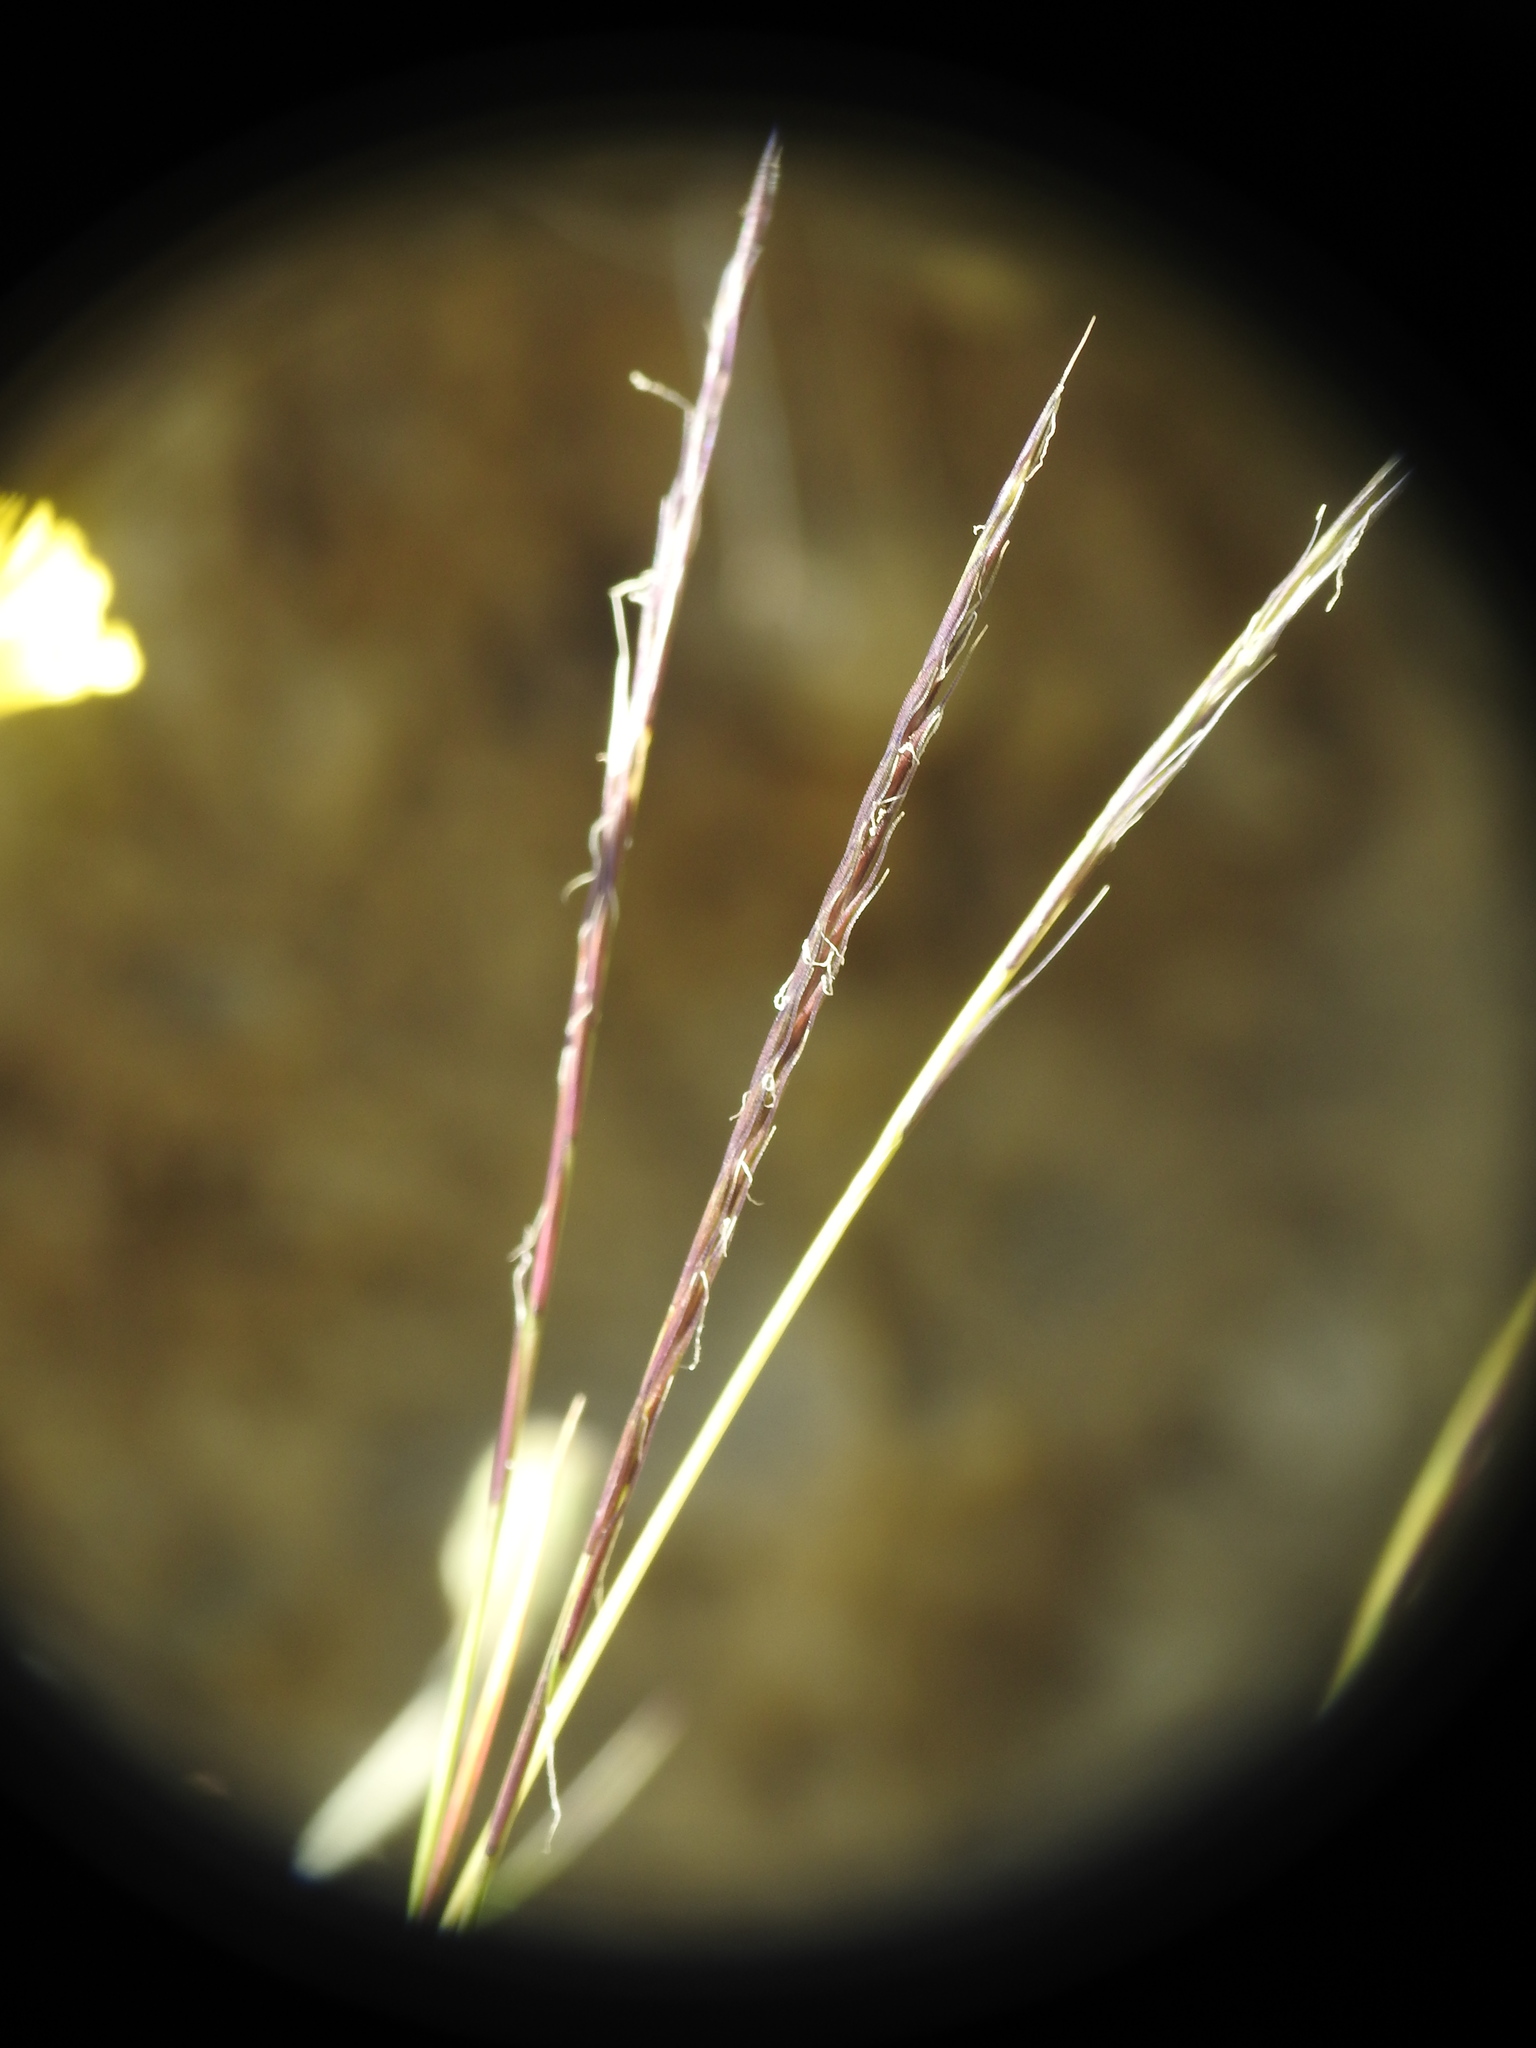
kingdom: Plantae
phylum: Tracheophyta
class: Liliopsida
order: Poales
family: Poaceae
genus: Nardus
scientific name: Nardus stricta
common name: Mat-grass
